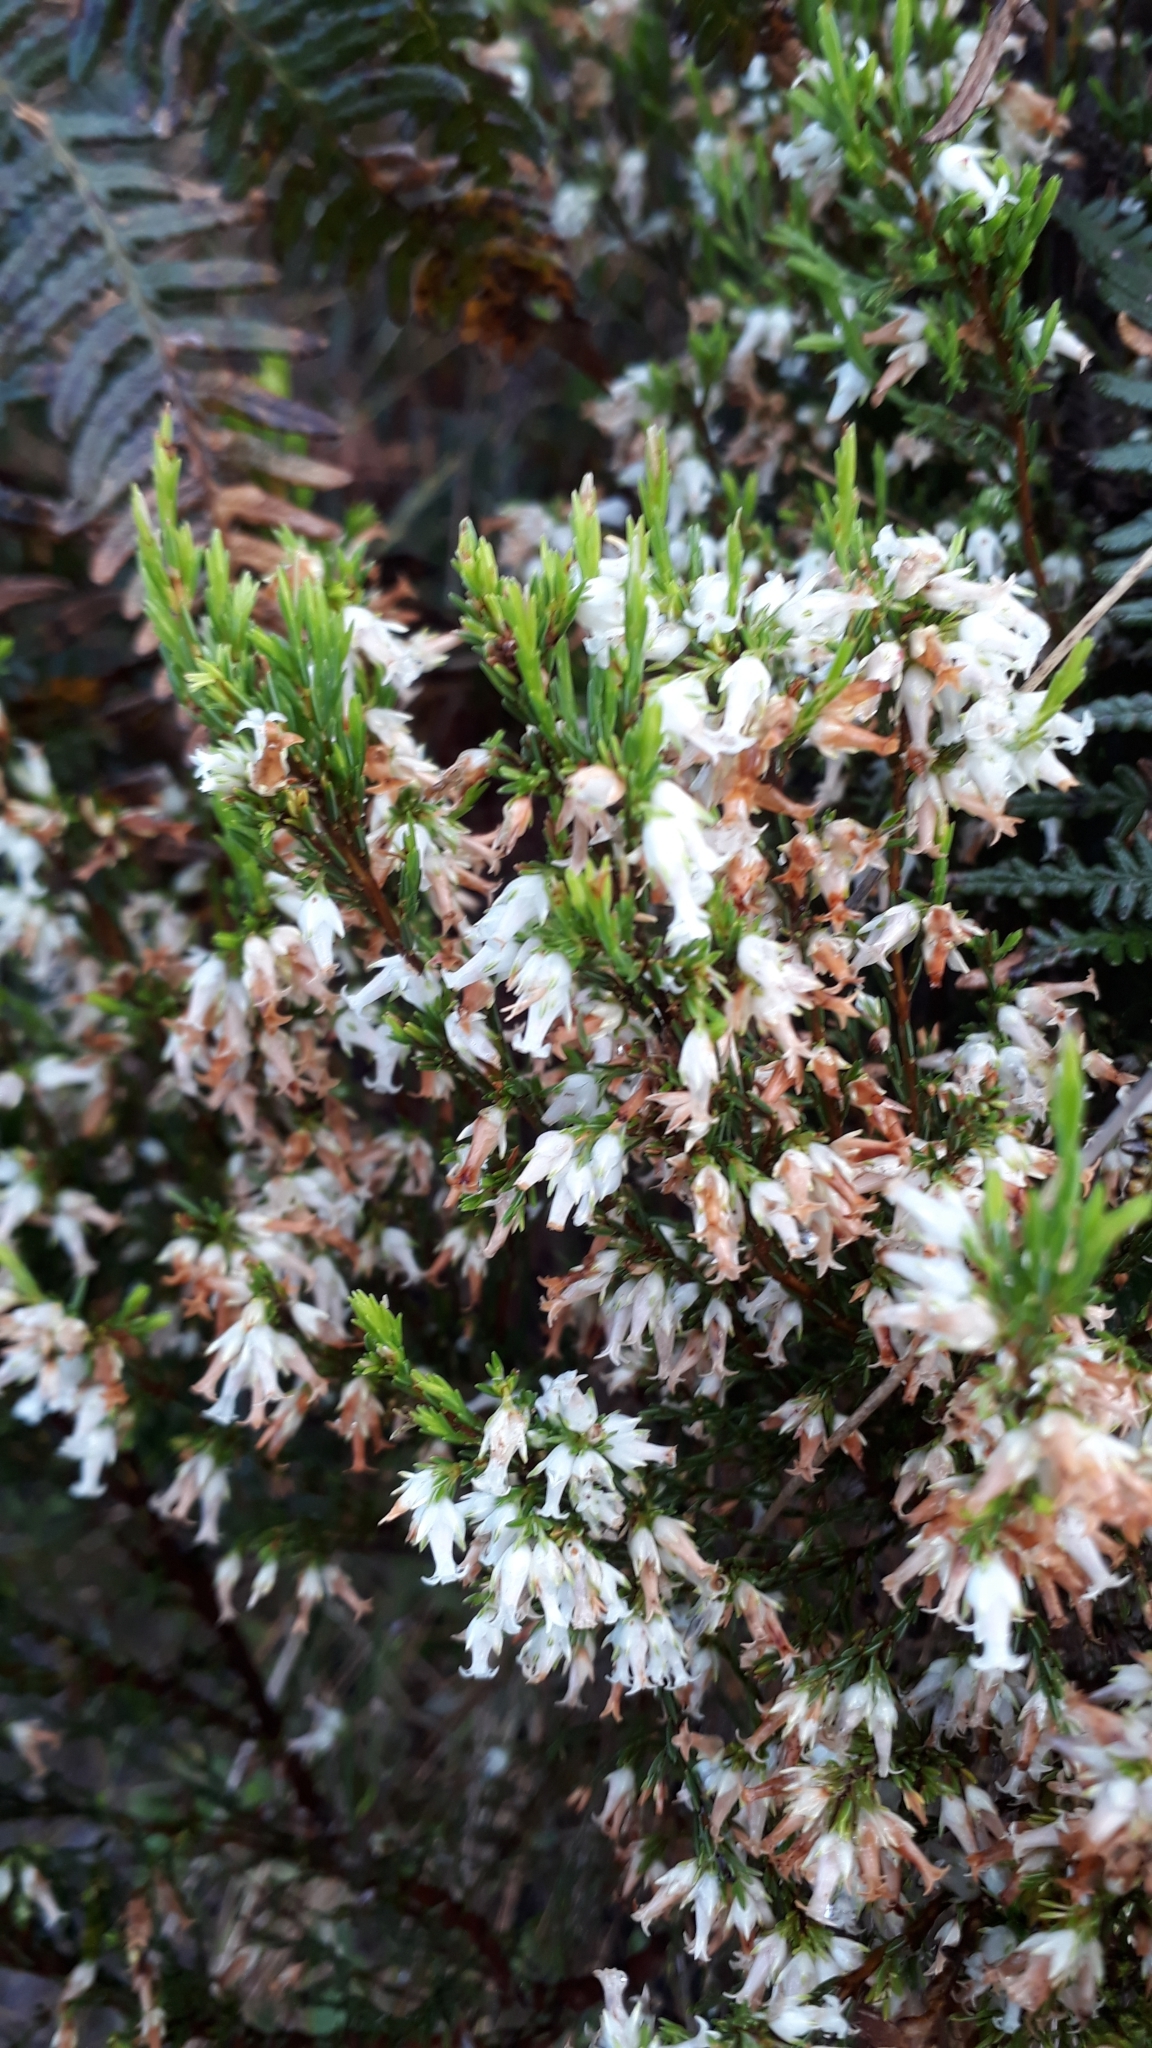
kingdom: Plantae
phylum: Tracheophyta
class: Magnoliopsida
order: Ericales
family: Ericaceae
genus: Erica
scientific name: Erica lutea
